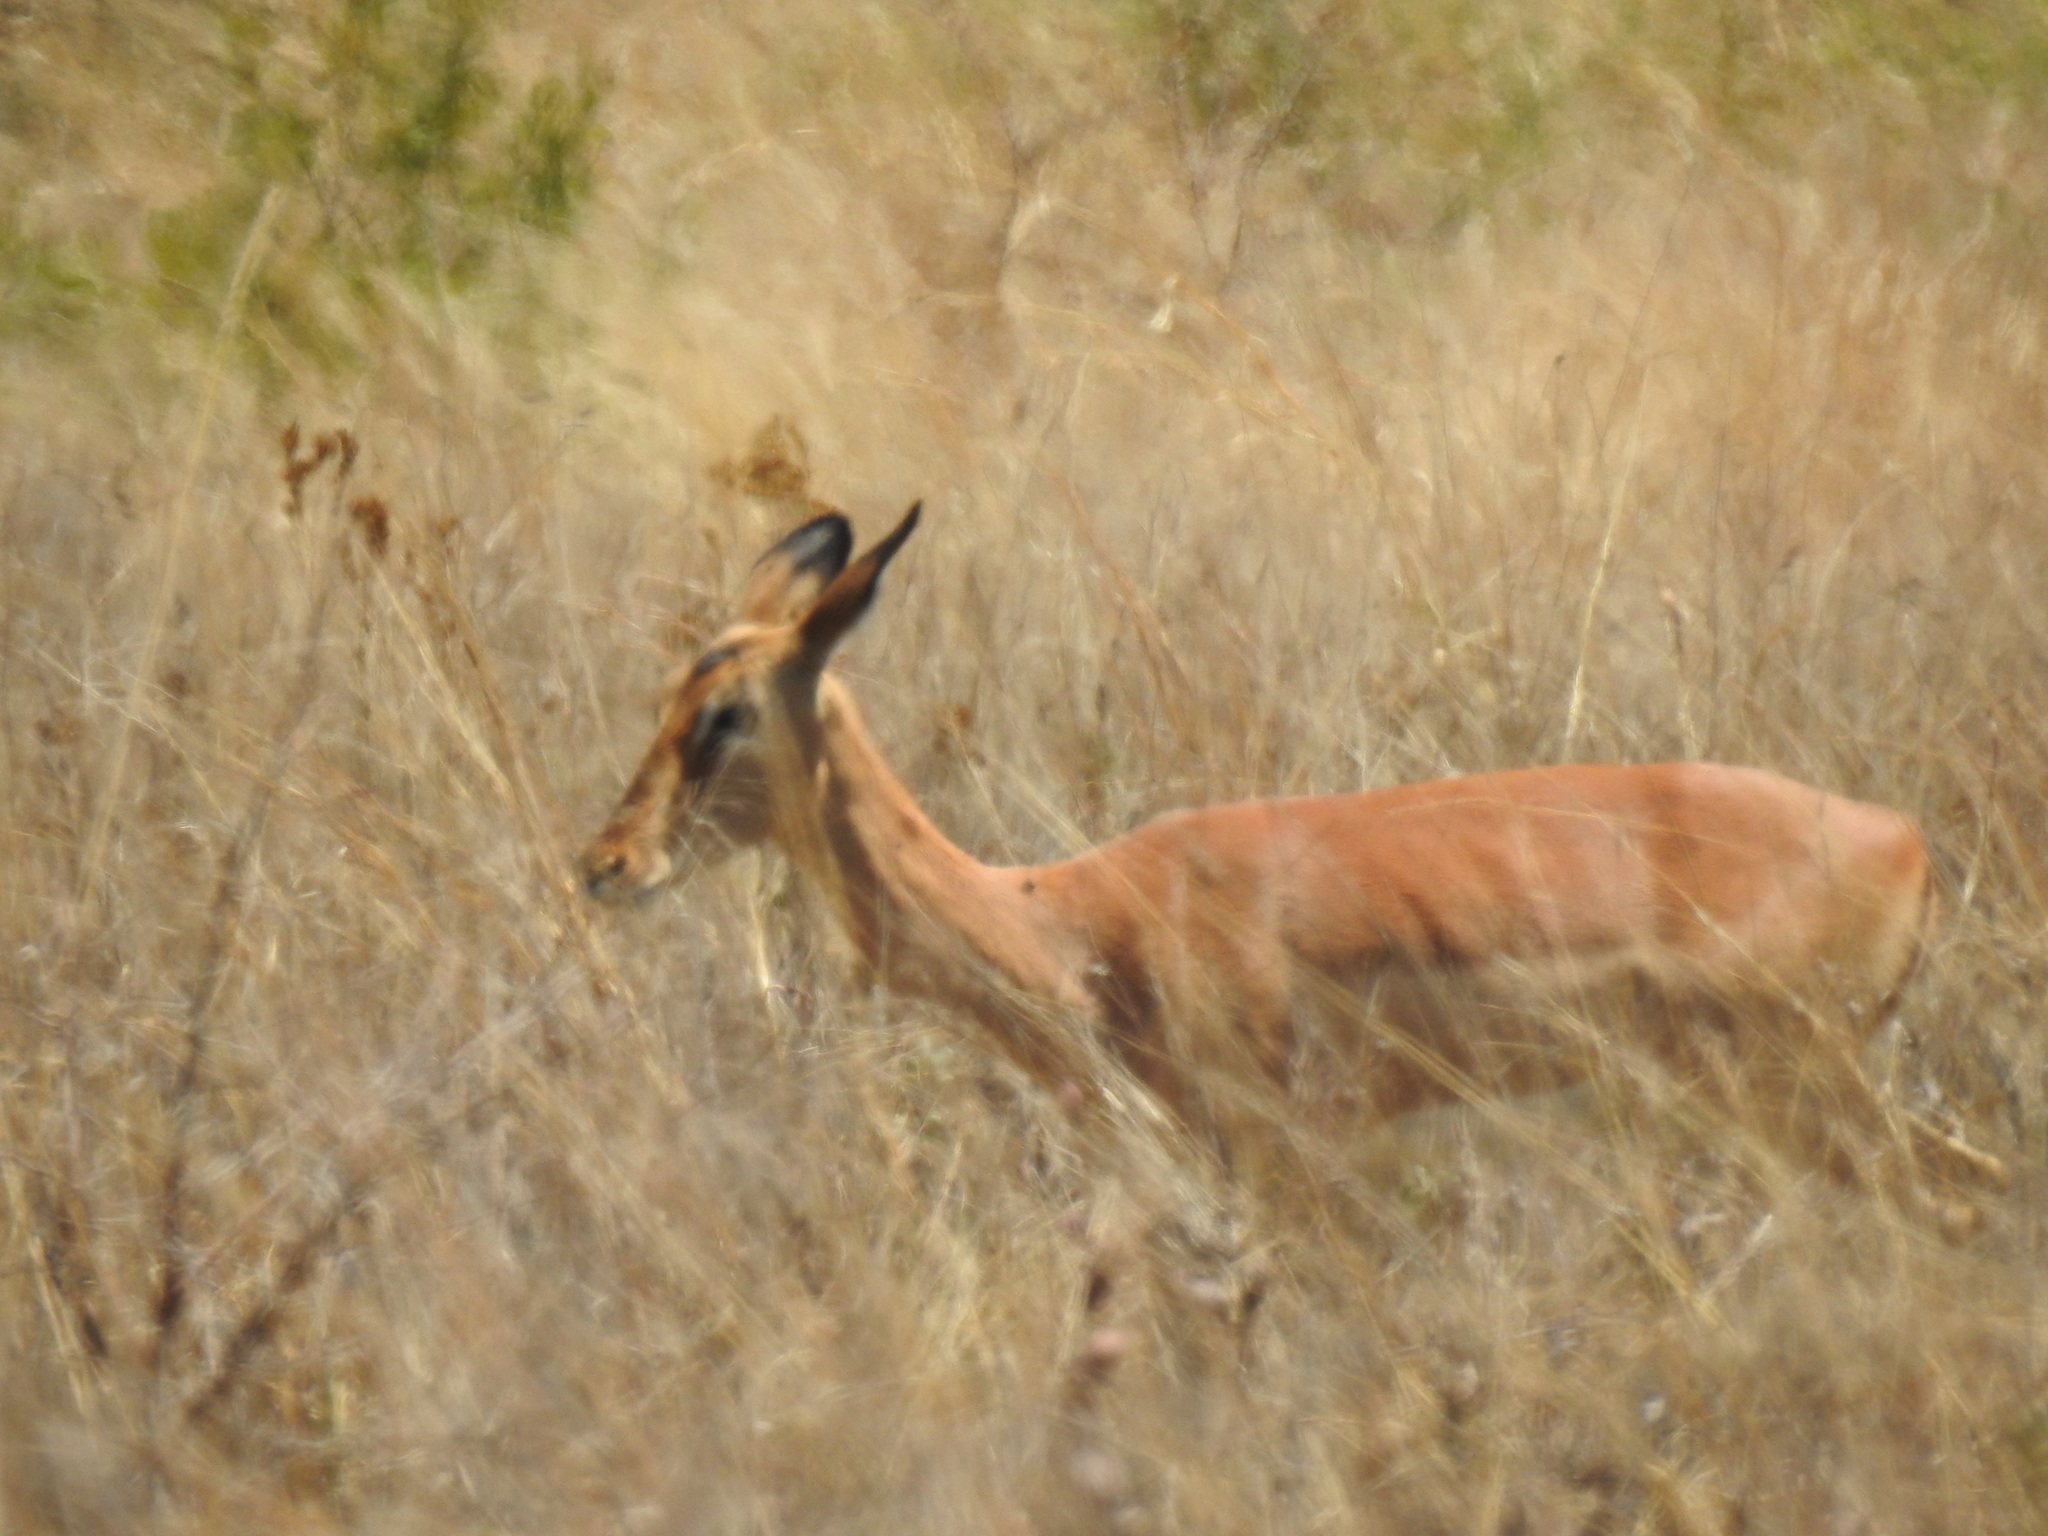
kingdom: Animalia
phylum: Chordata
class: Mammalia
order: Artiodactyla
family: Bovidae
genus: Aepyceros
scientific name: Aepyceros melampus
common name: Impala
